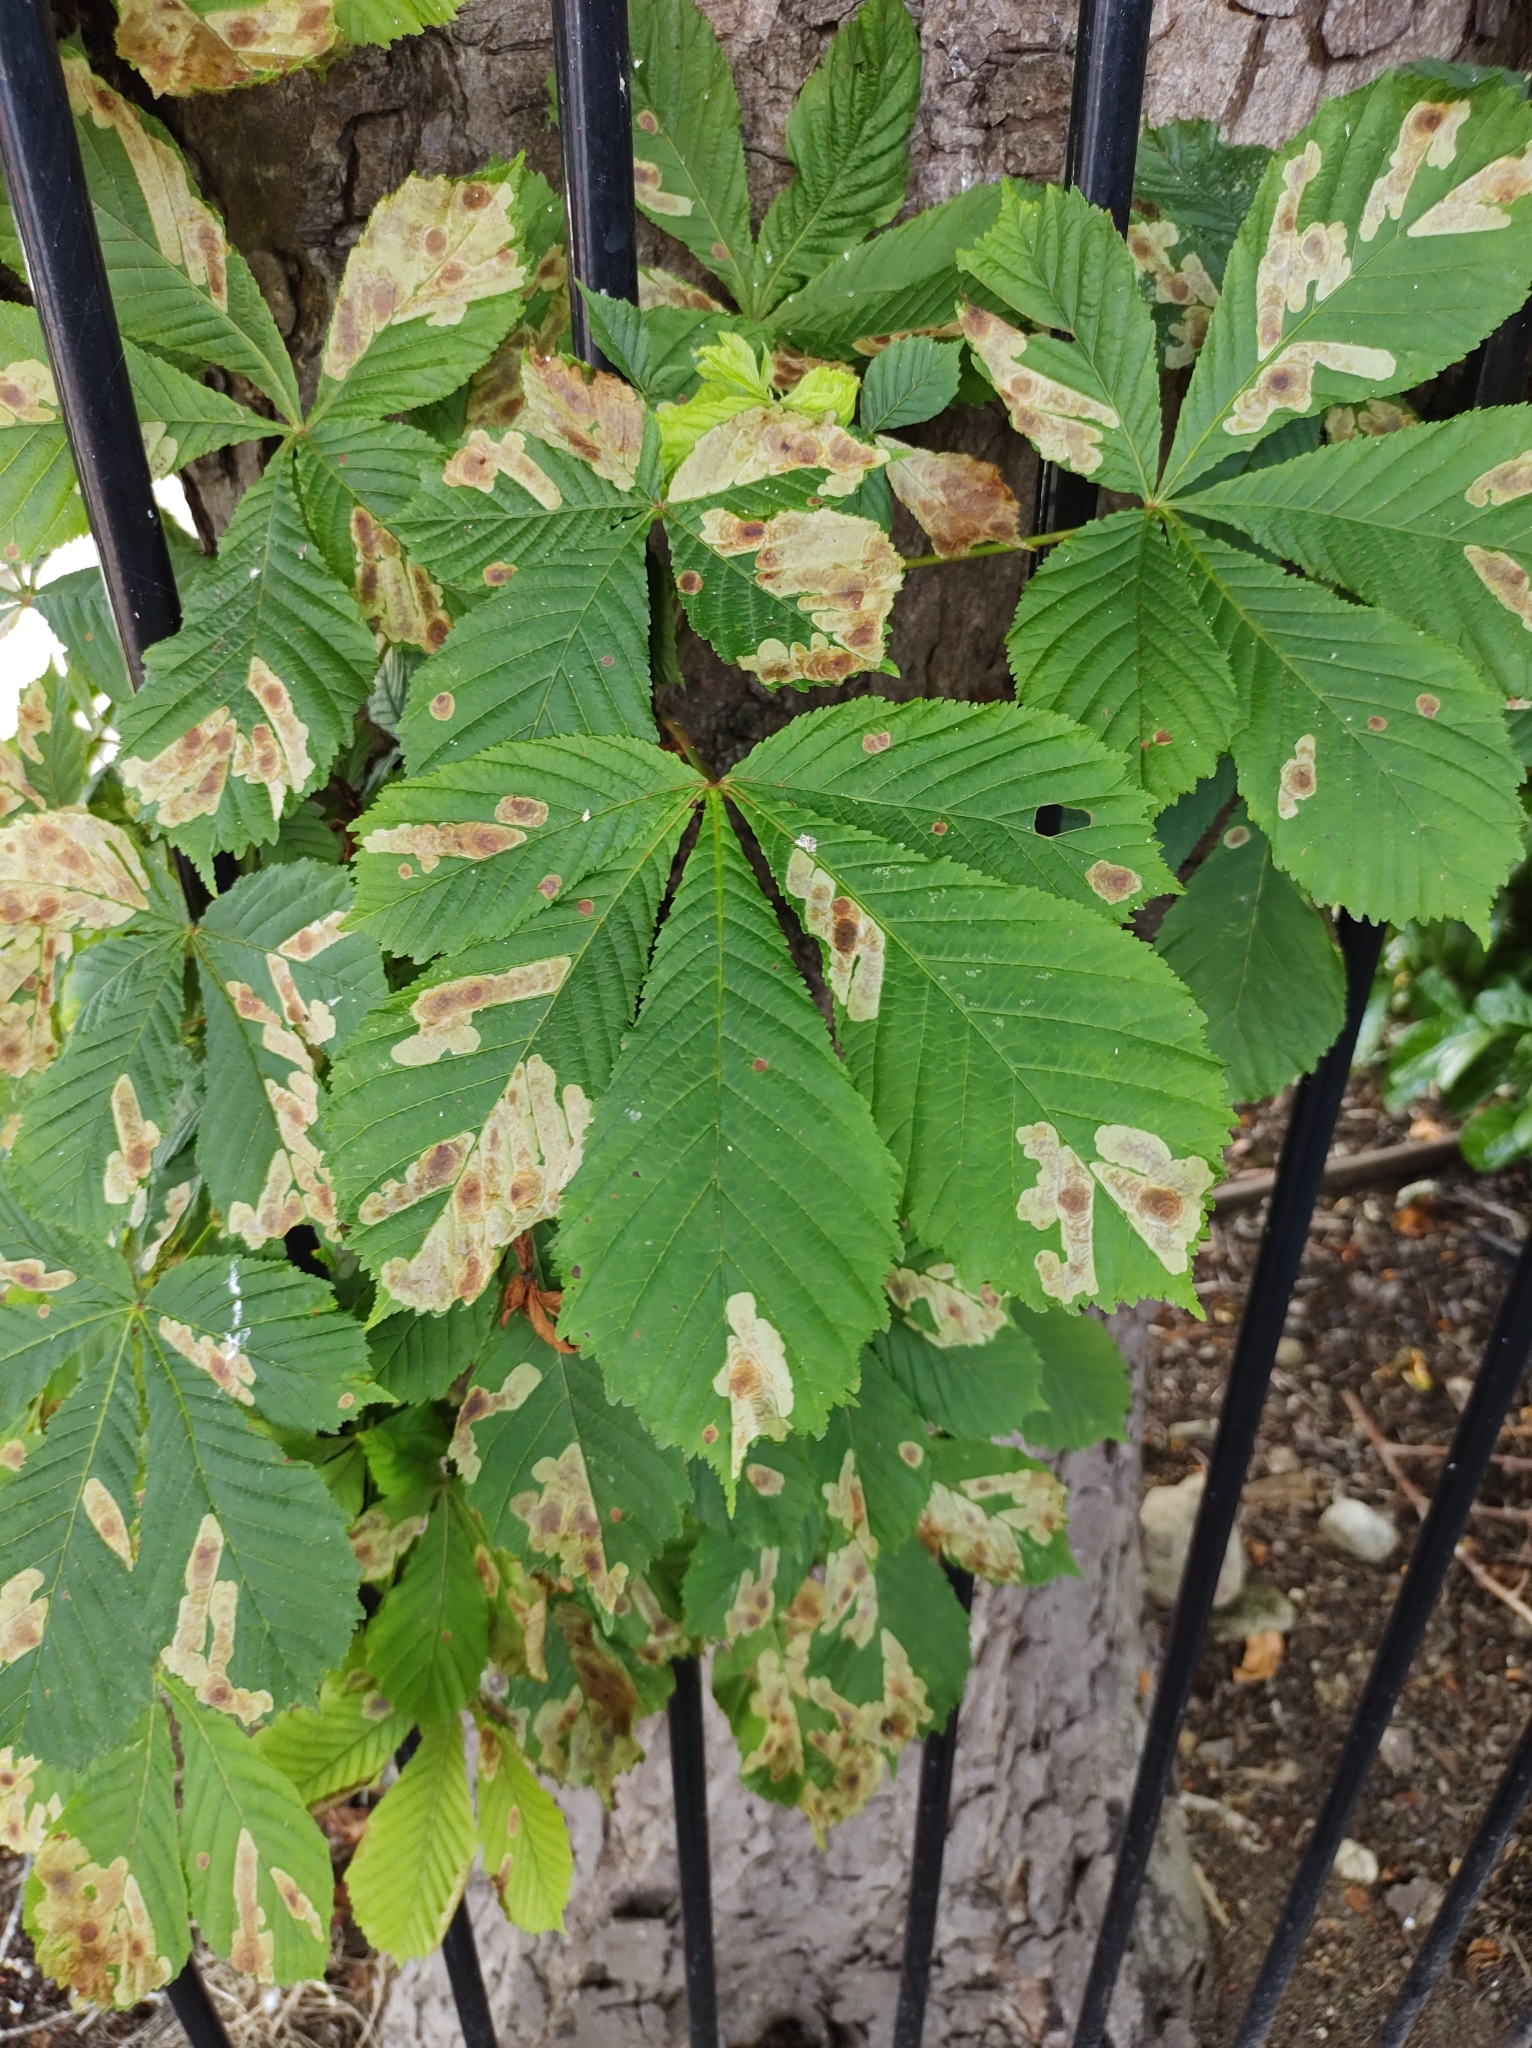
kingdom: Animalia
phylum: Arthropoda
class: Insecta
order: Lepidoptera
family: Gracillariidae
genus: Cameraria
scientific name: Cameraria ohridella
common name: Horse-chestnut leaf-miner
